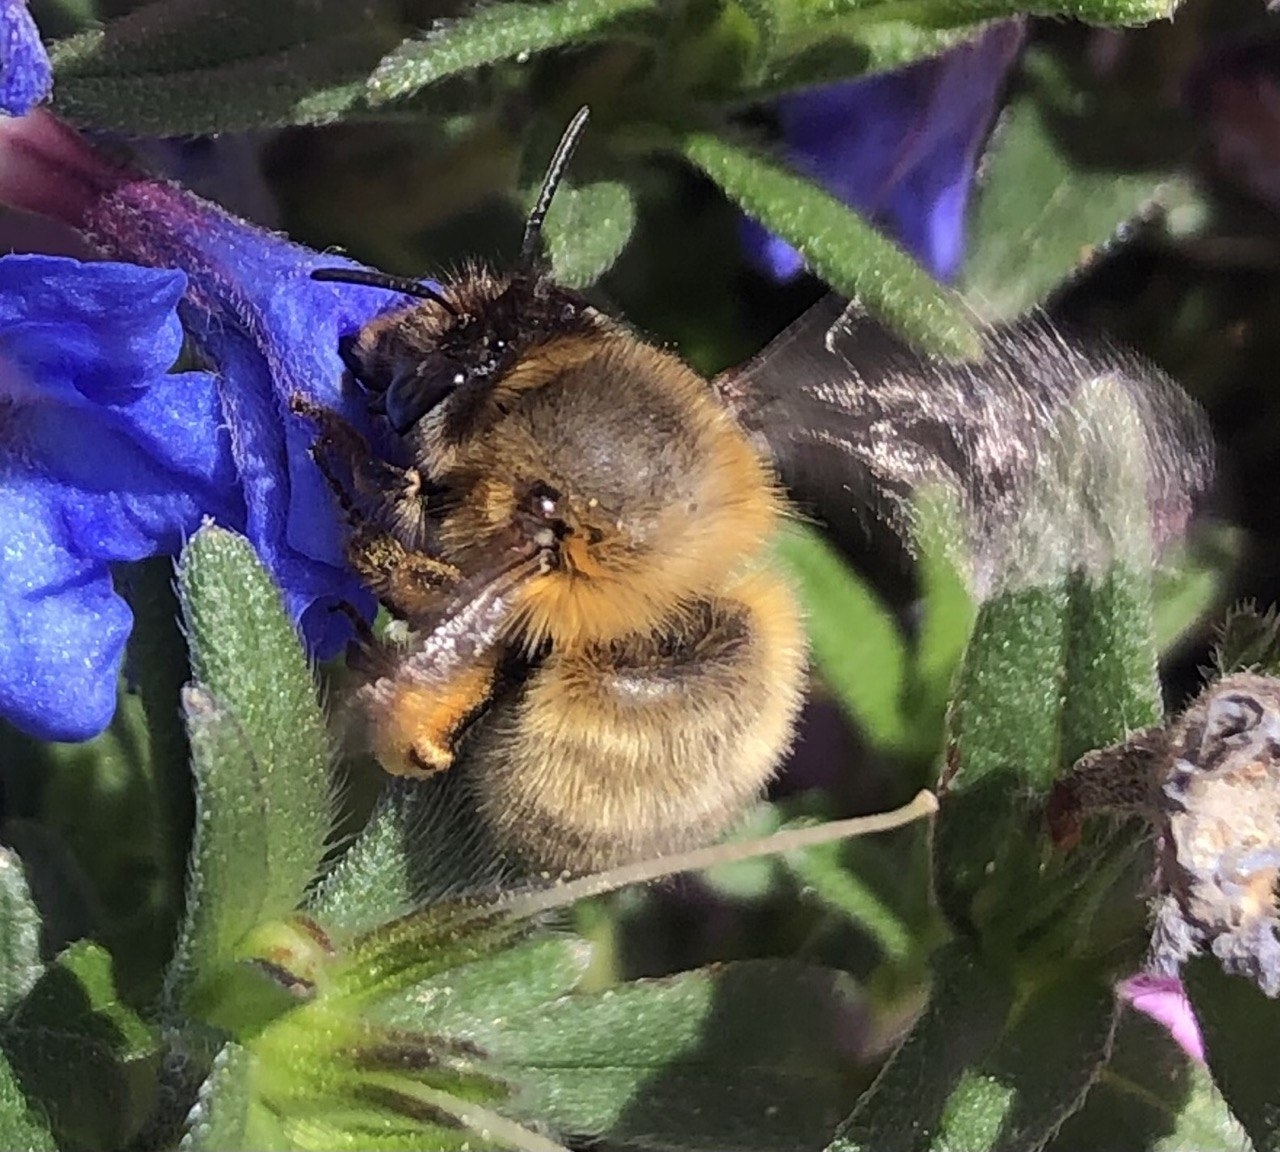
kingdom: Animalia
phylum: Arthropoda
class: Insecta
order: Hymenoptera
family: Apidae
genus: Anthophora
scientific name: Anthophora plumipes
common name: Hairy-footed flower bee
